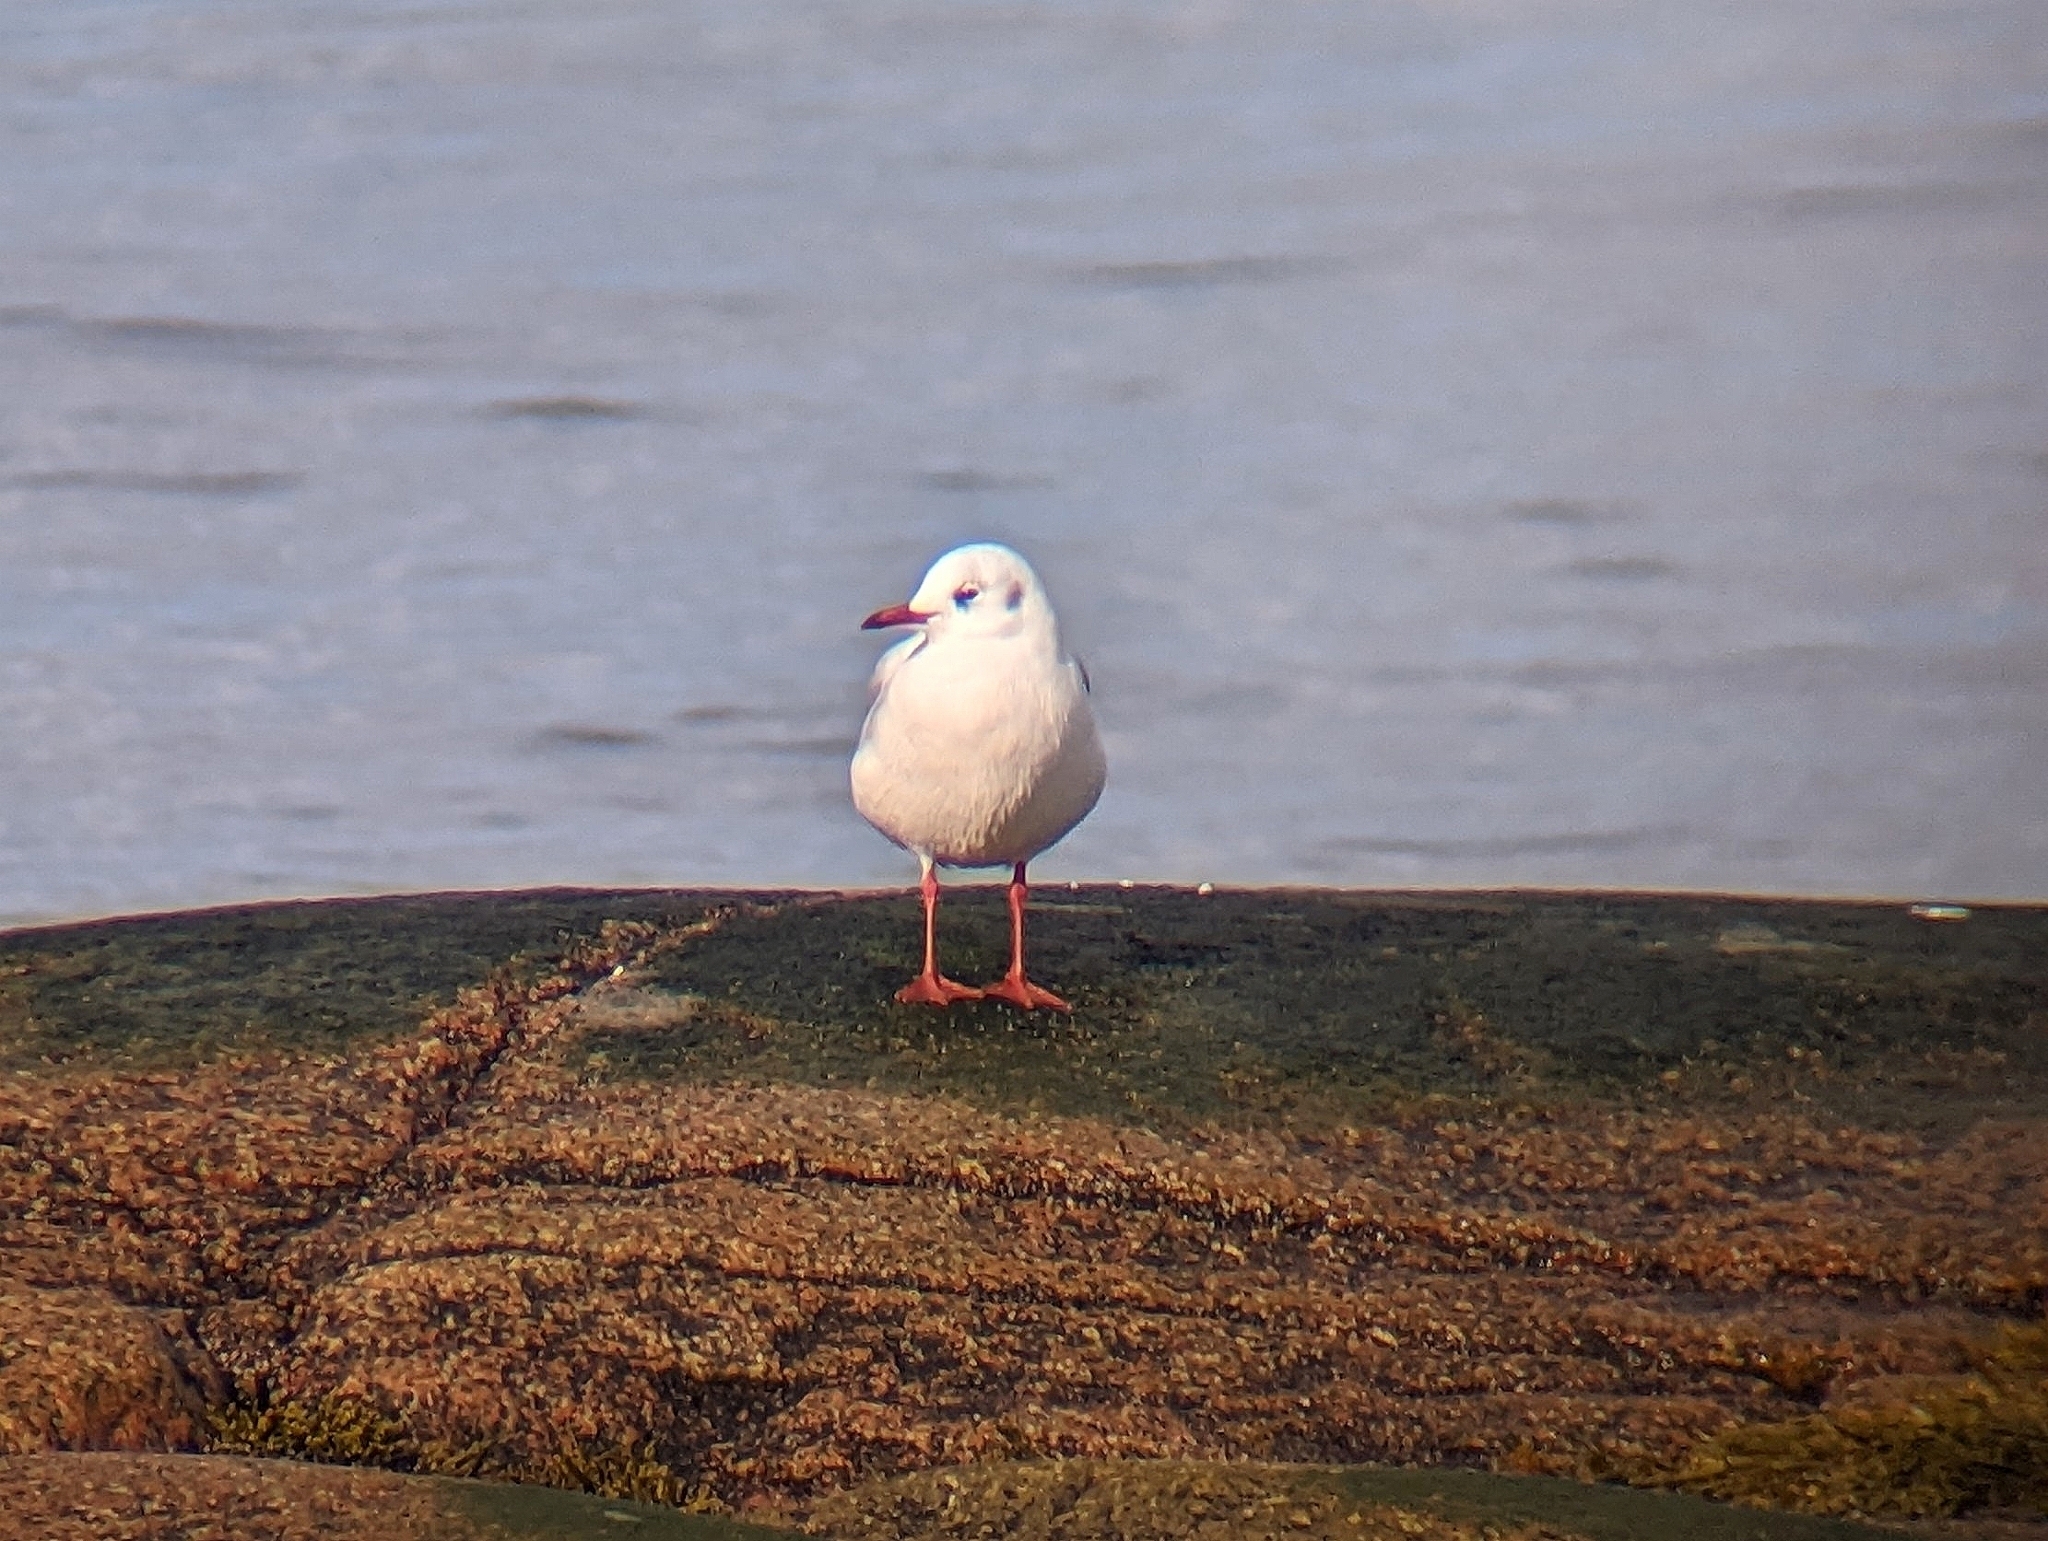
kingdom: Animalia
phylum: Chordata
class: Aves
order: Charadriiformes
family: Laridae
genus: Chroicocephalus
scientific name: Chroicocephalus ridibundus
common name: Black-headed gull
